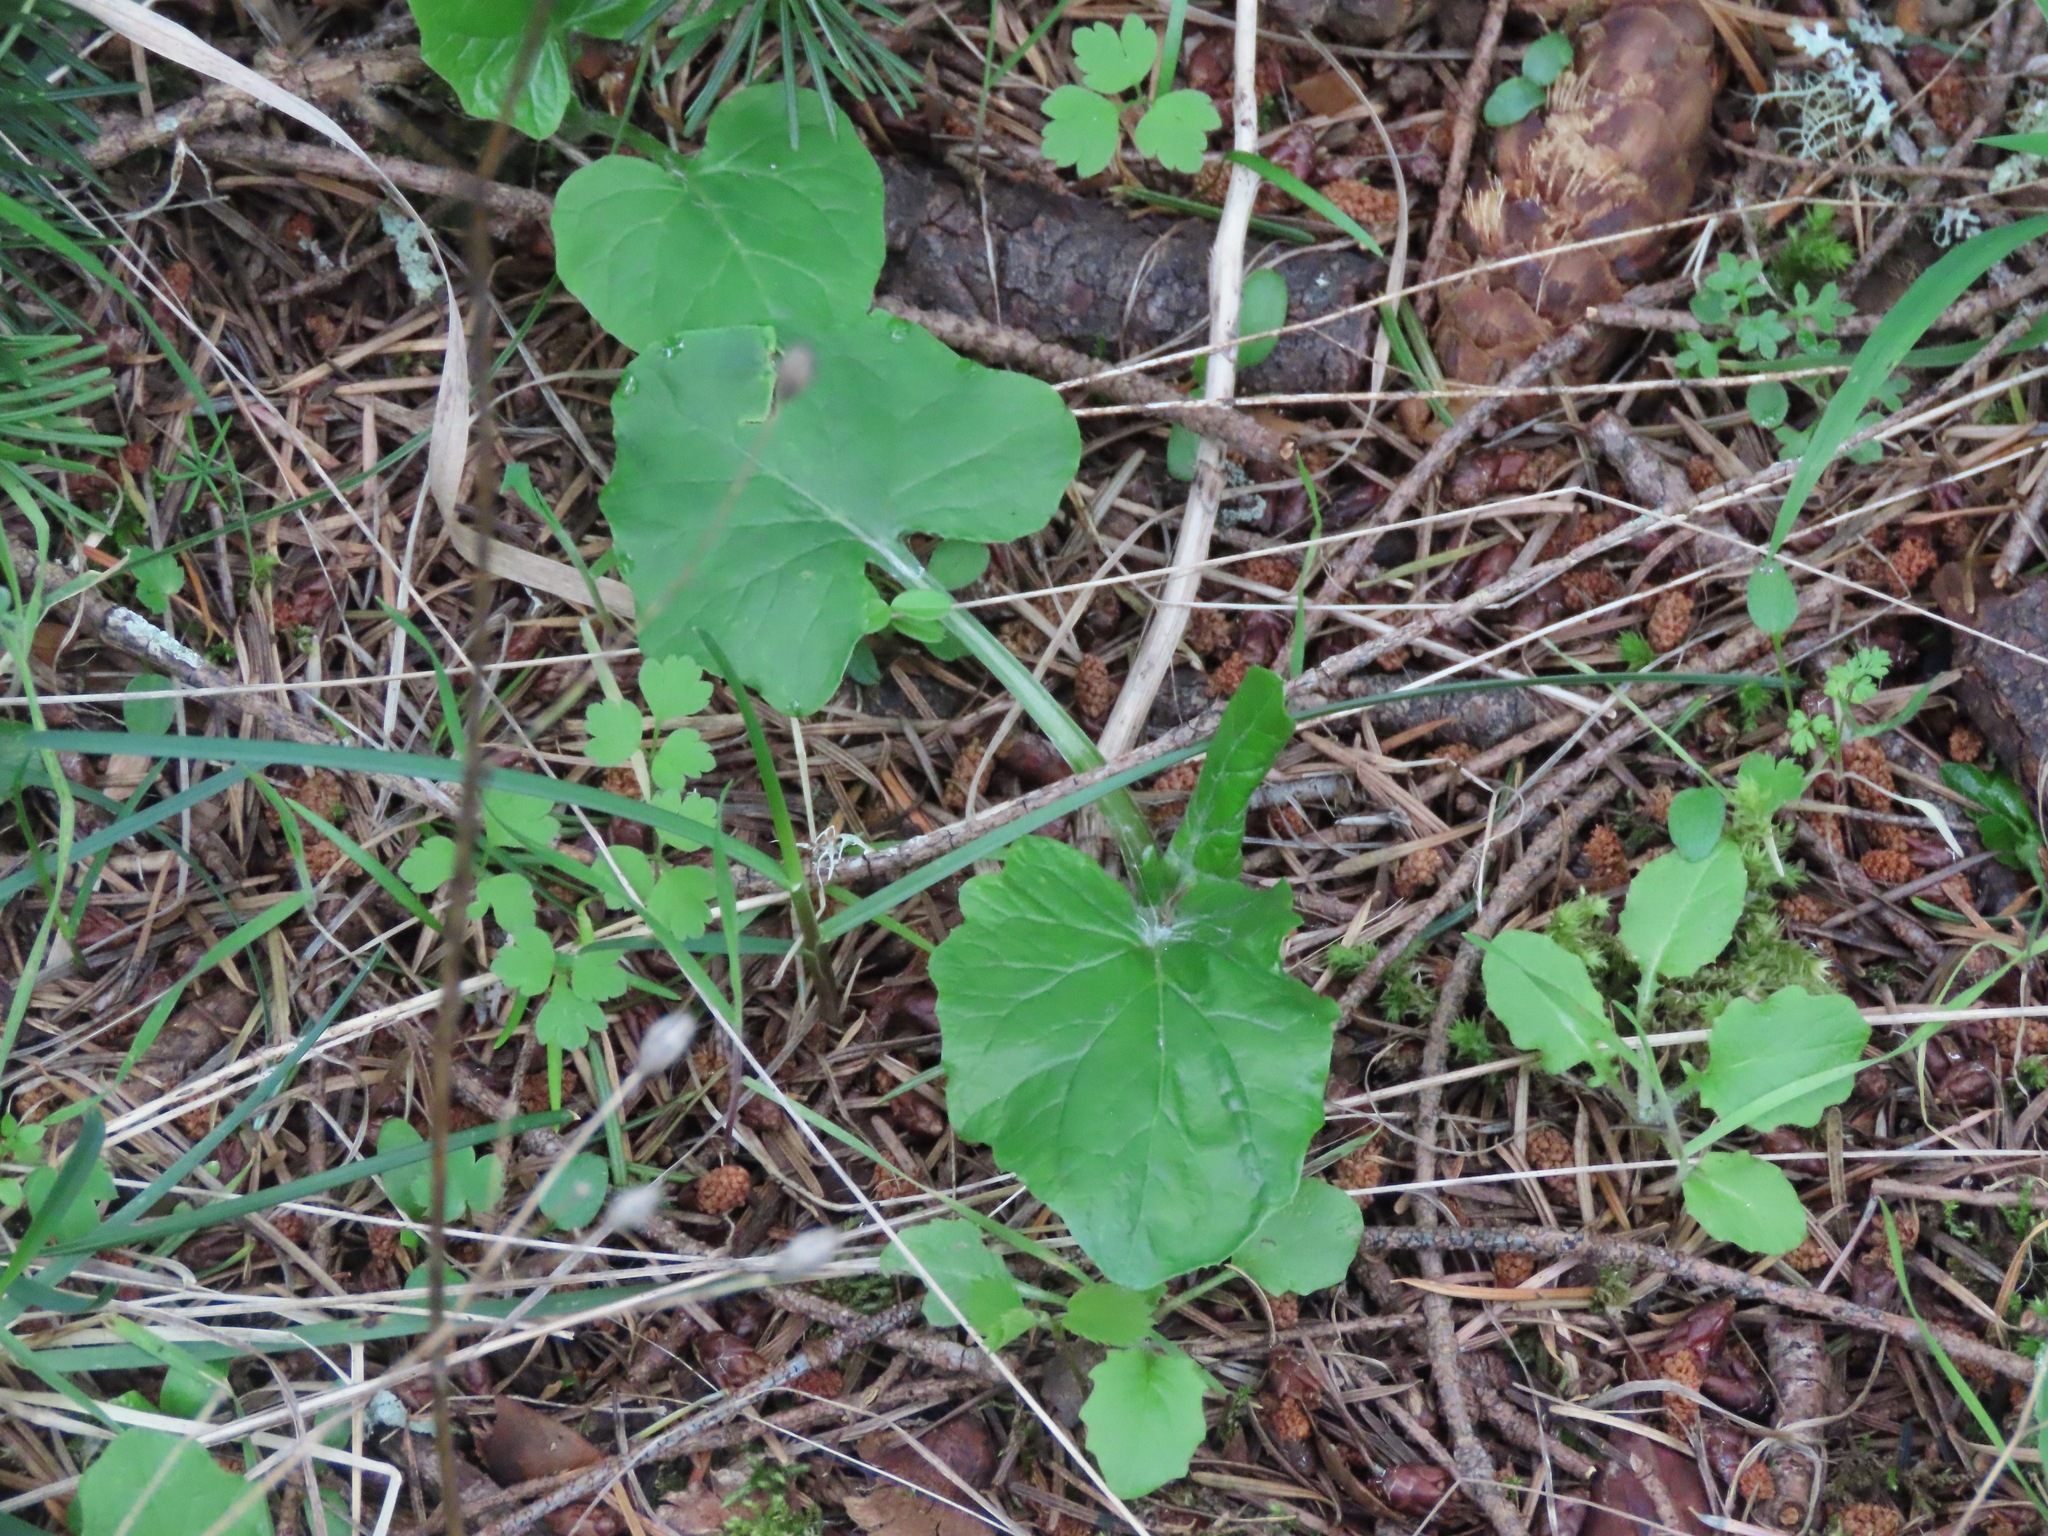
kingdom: Plantae
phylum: Tracheophyta
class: Magnoliopsida
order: Asterales
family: Asteraceae
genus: Adenocaulon
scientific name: Adenocaulon bicolor
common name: Trailplant
